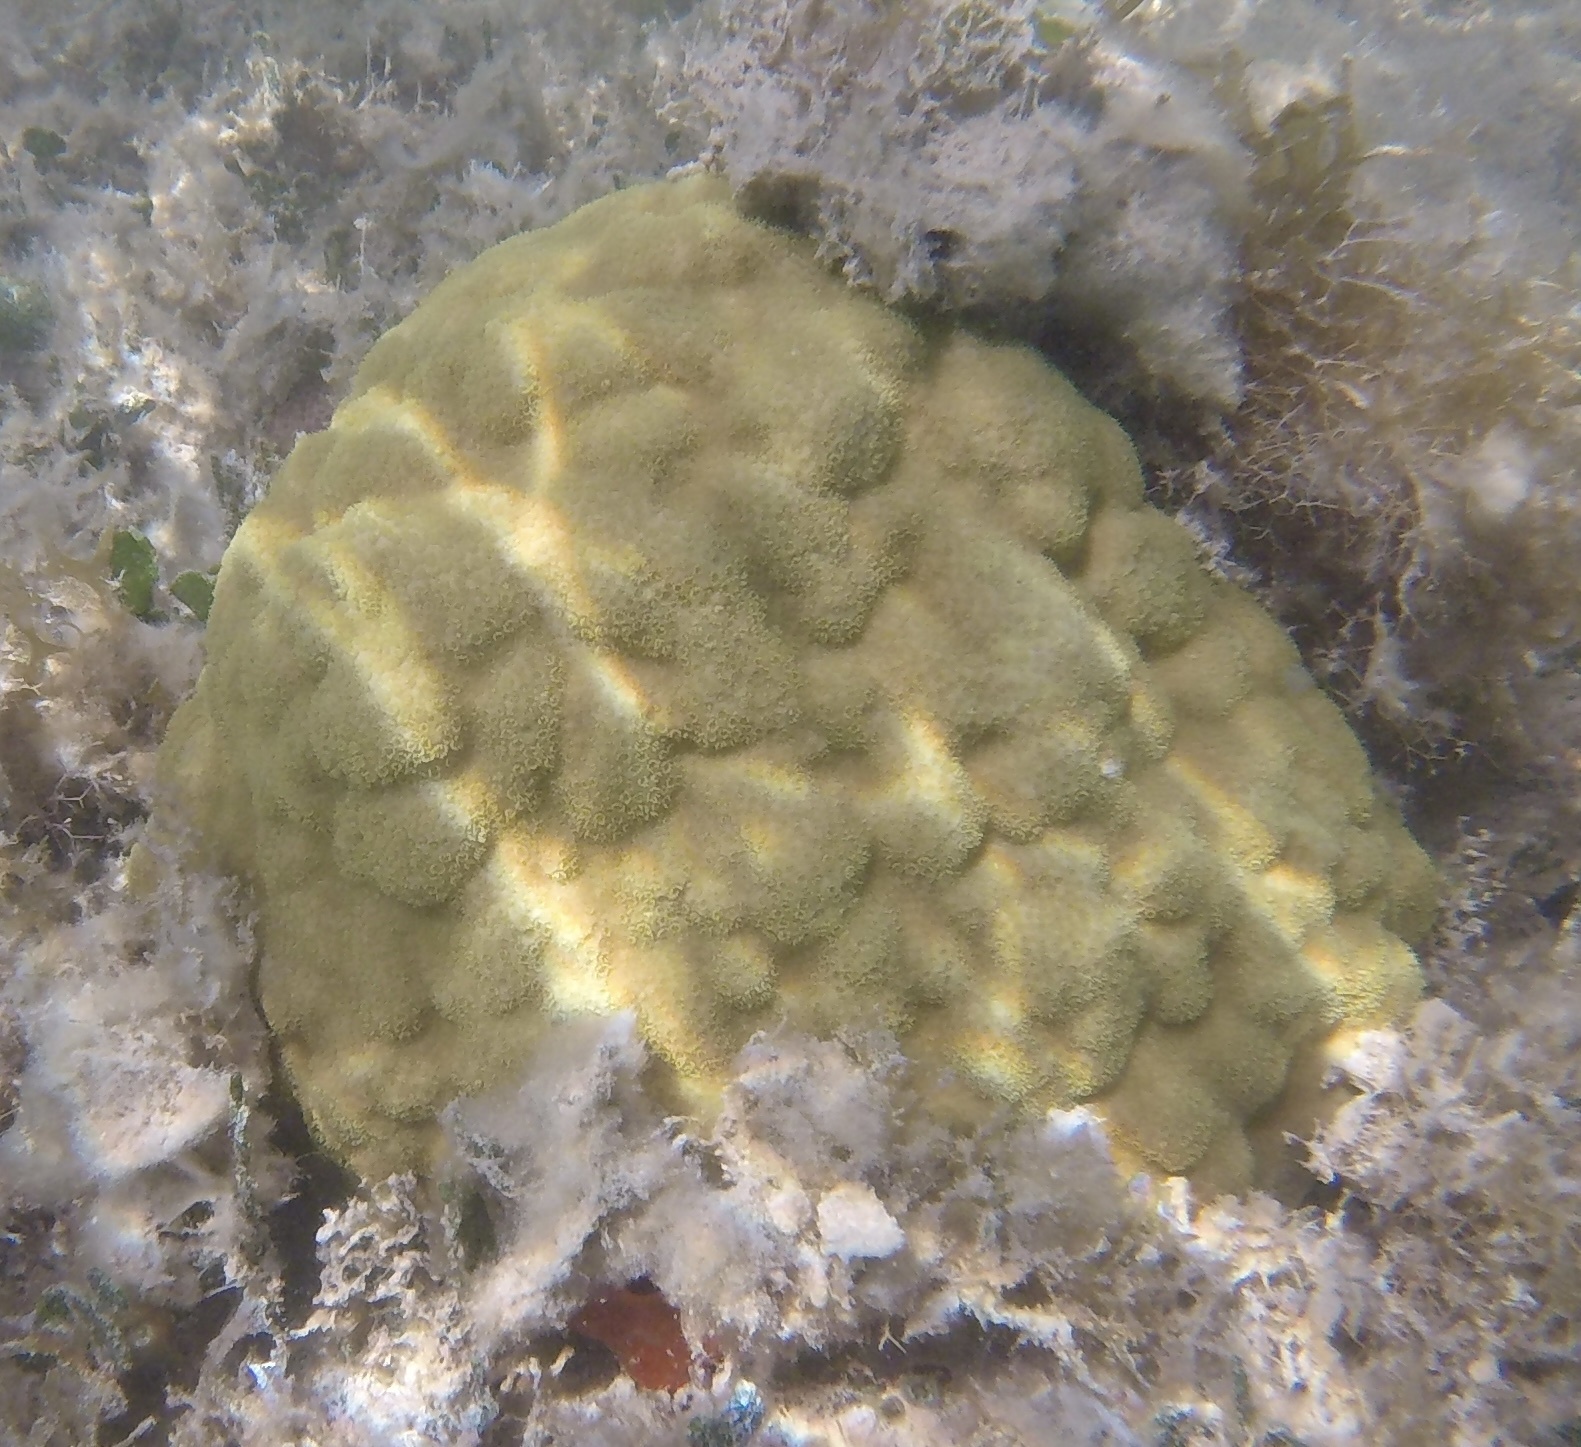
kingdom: Animalia
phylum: Cnidaria
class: Anthozoa
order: Scleractinia
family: Poritidae
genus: Porites
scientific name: Porites astreoides
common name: Mustard hill coral
